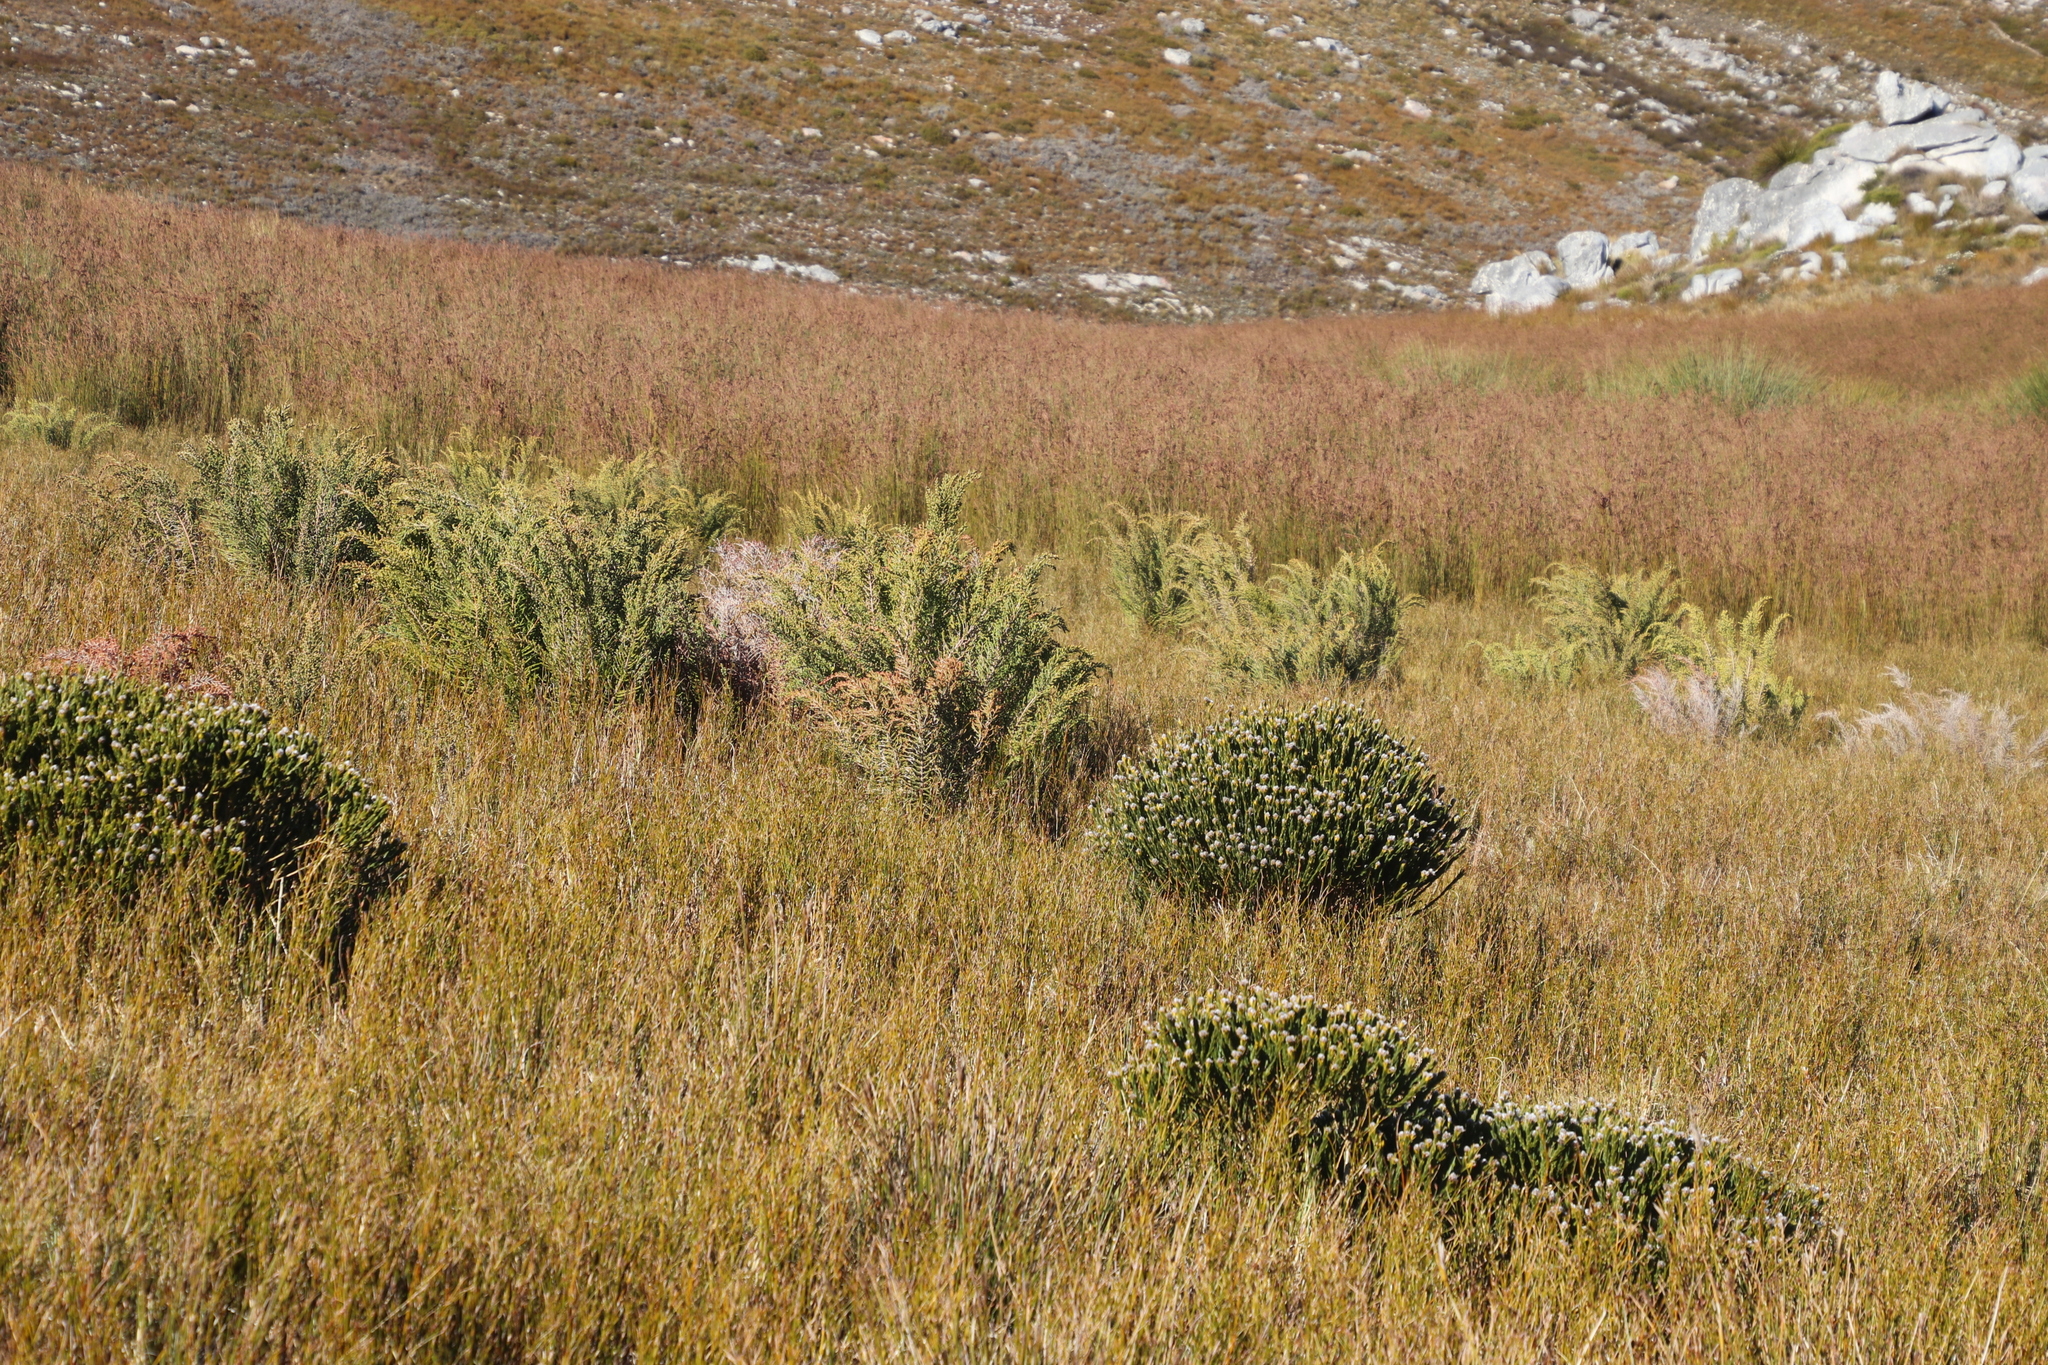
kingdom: Plantae
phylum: Tracheophyta
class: Magnoliopsida
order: Fabales
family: Fabaceae
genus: Liparia
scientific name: Liparia umbellifera
